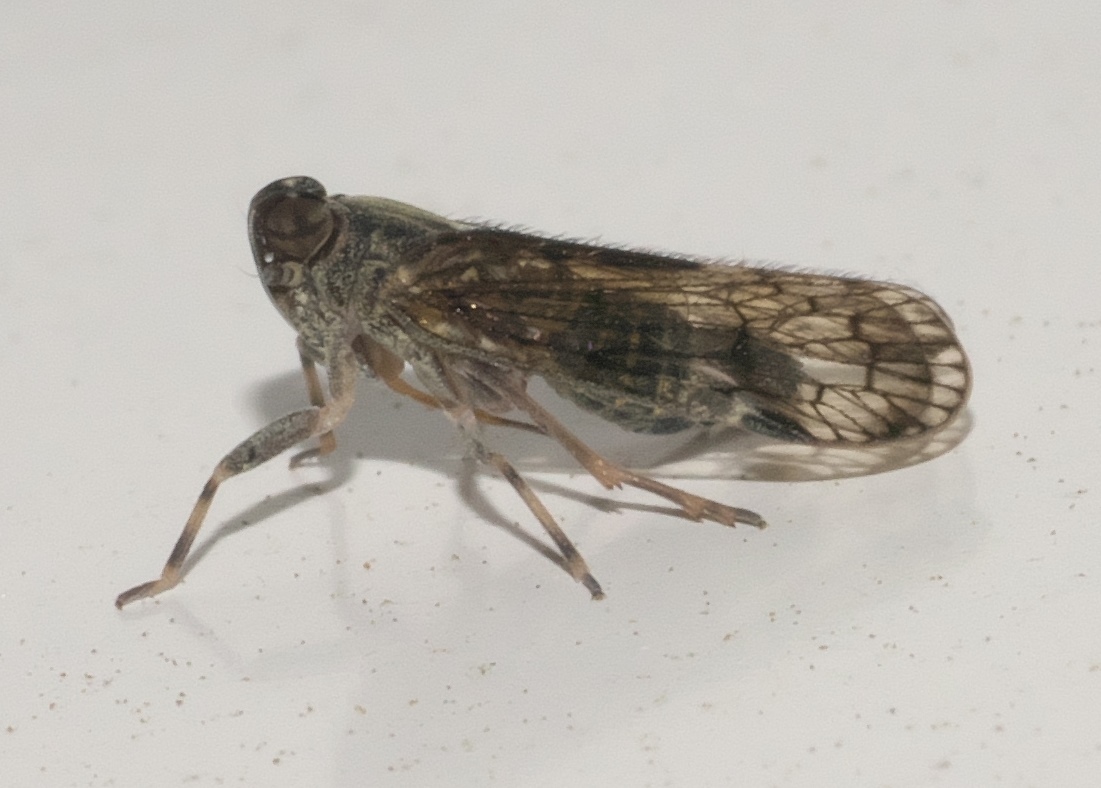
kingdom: Animalia
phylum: Arthropoda
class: Insecta
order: Hemiptera
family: Cixiidae
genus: Melanoliarus
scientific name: Melanoliarus placitus
